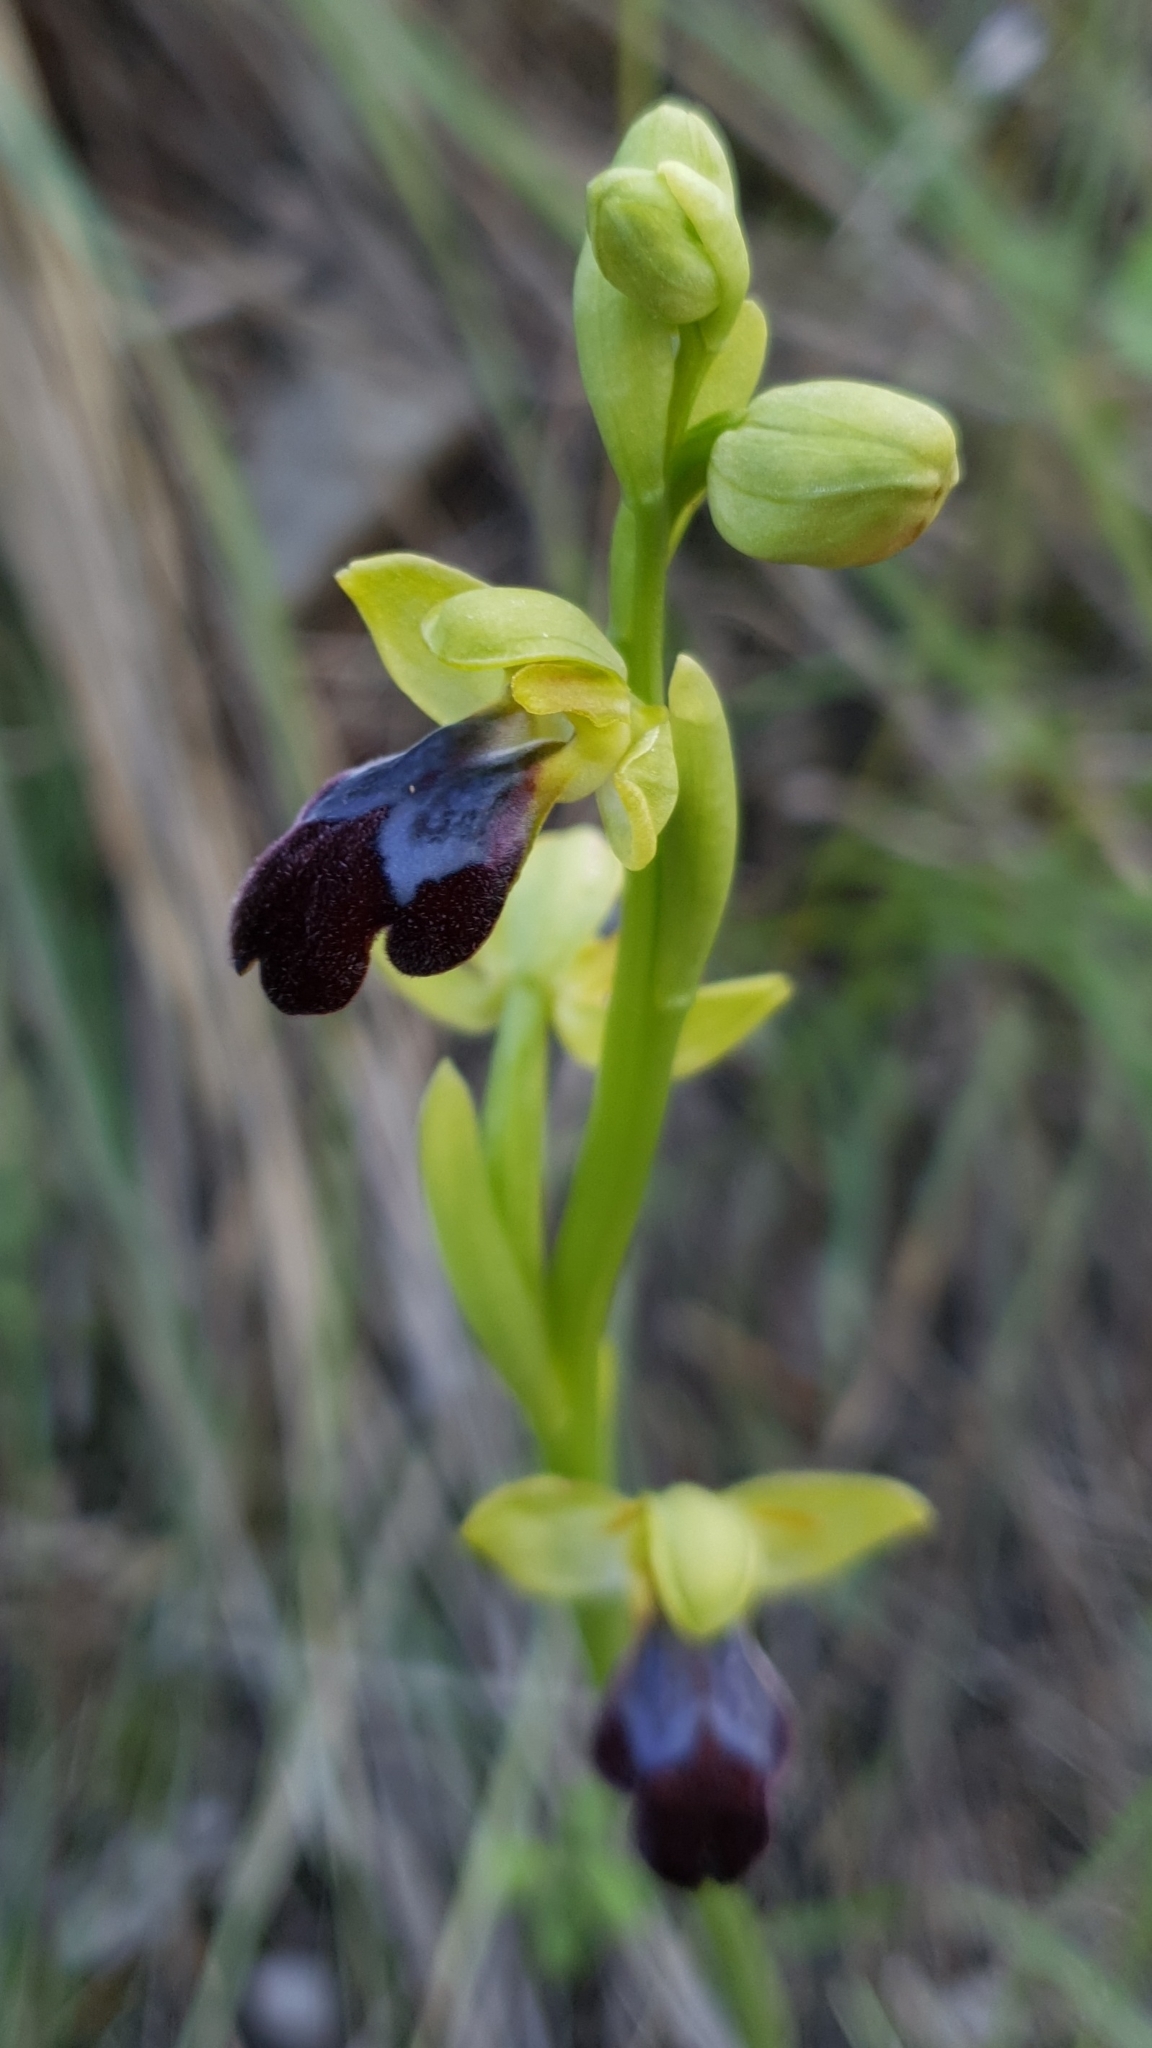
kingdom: Plantae
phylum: Tracheophyta
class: Liliopsida
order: Asparagales
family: Orchidaceae
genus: Ophrys
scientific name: Ophrys fusca
